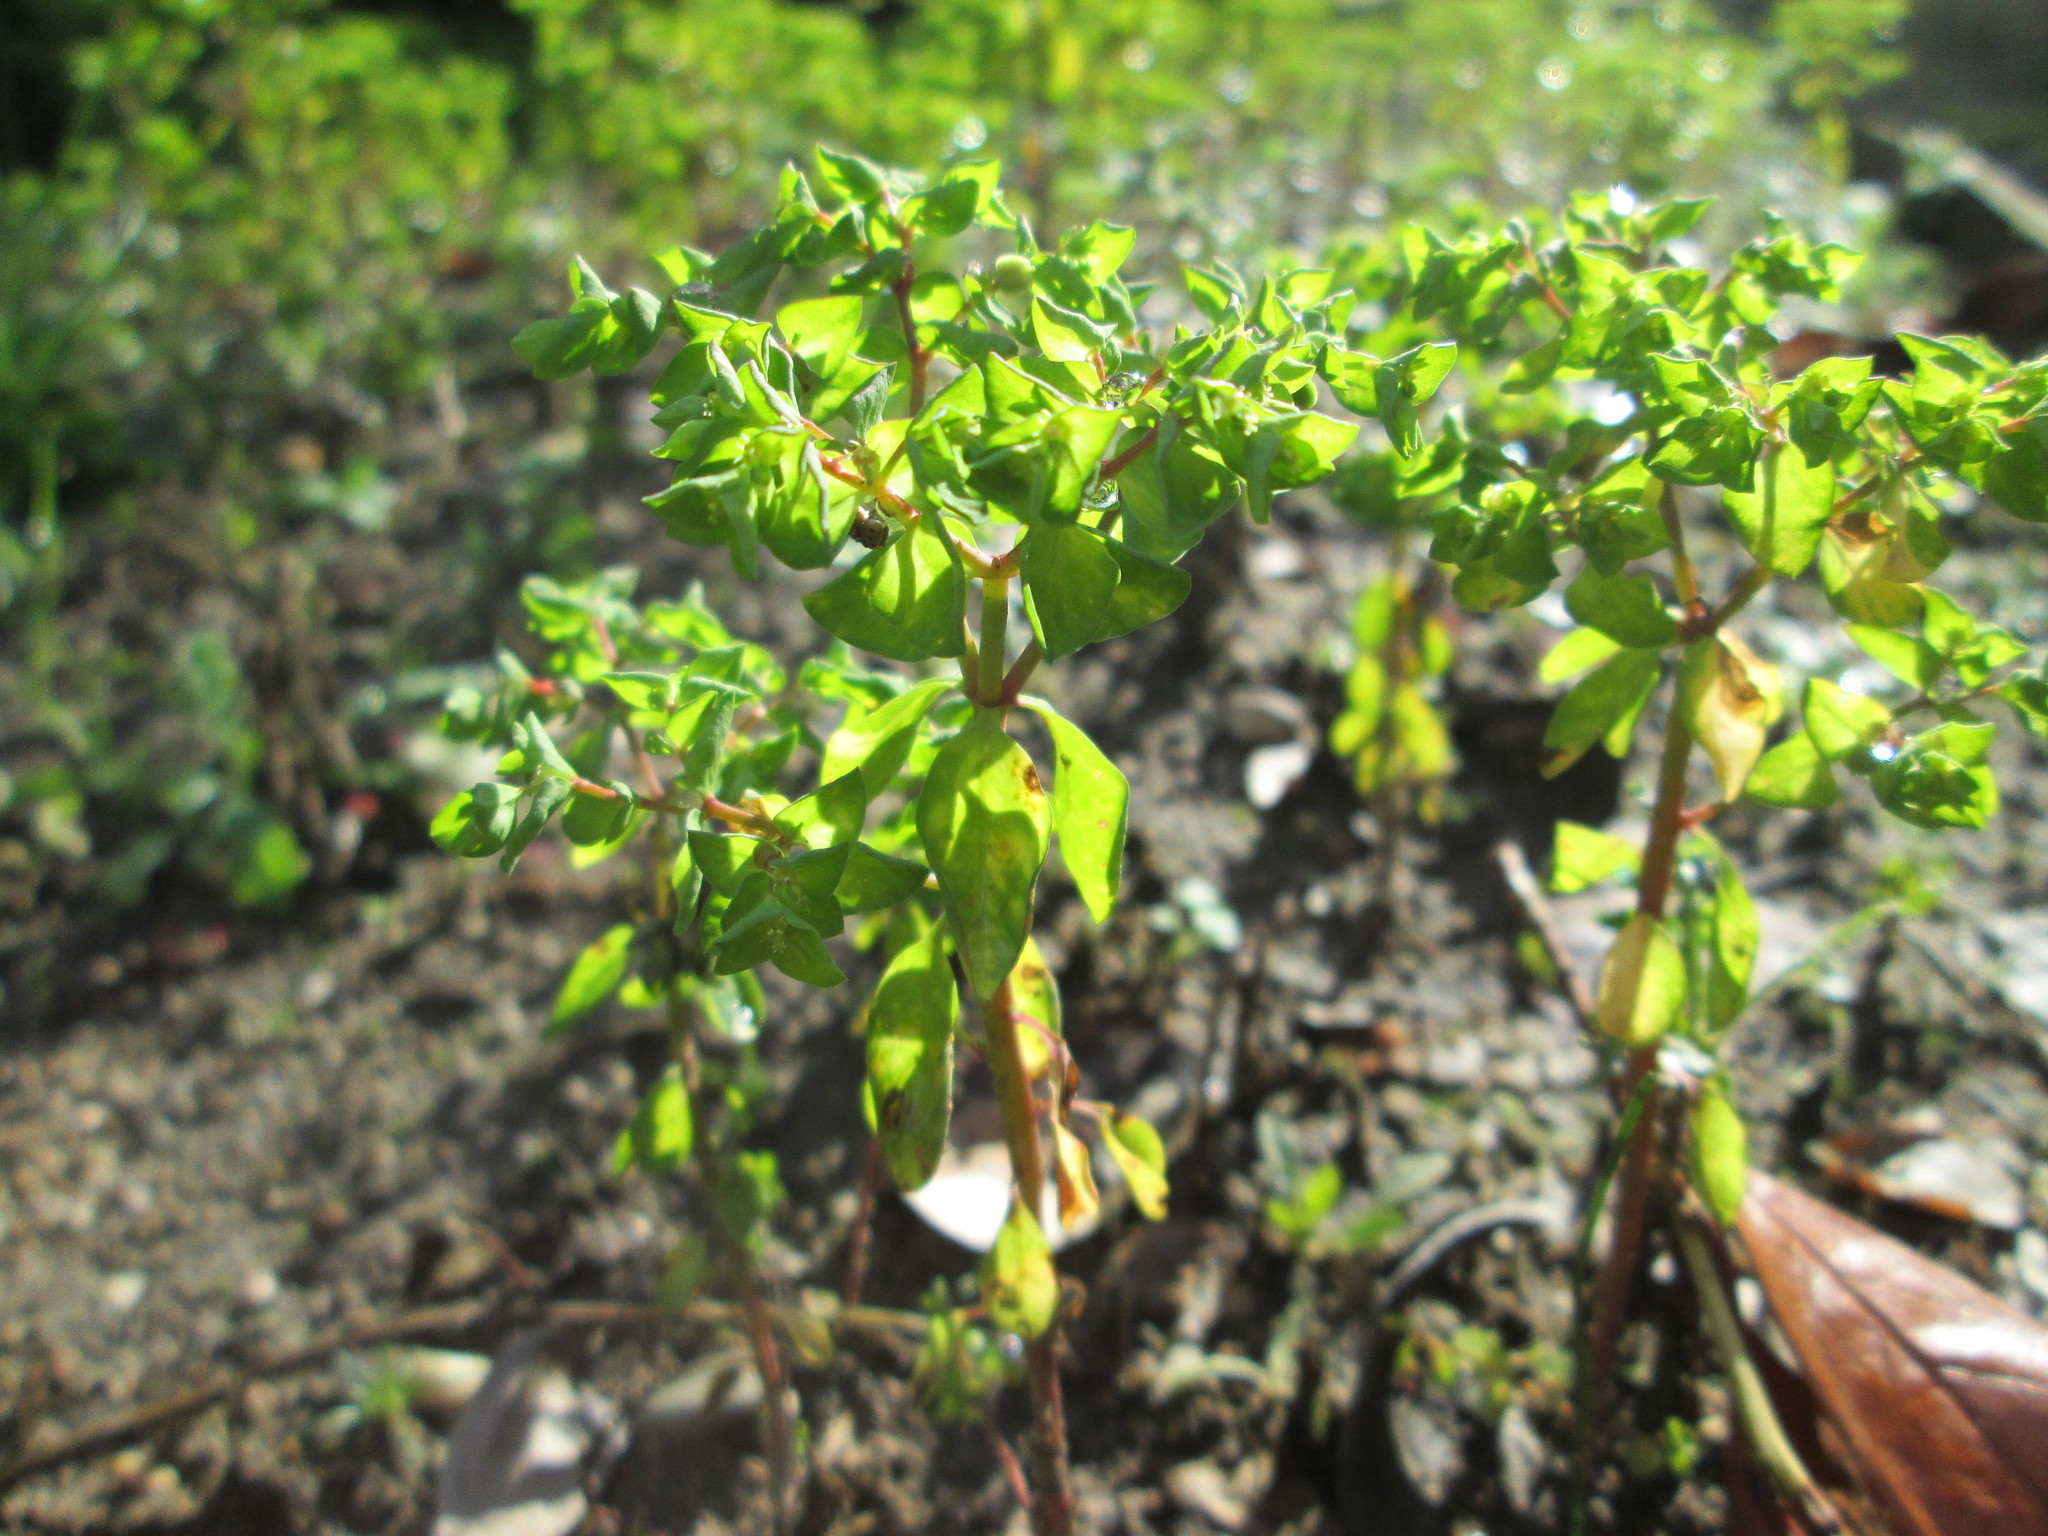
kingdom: Plantae
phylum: Tracheophyta
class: Magnoliopsida
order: Malpighiales
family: Euphorbiaceae
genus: Euphorbia
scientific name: Euphorbia peplus
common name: Petty spurge
